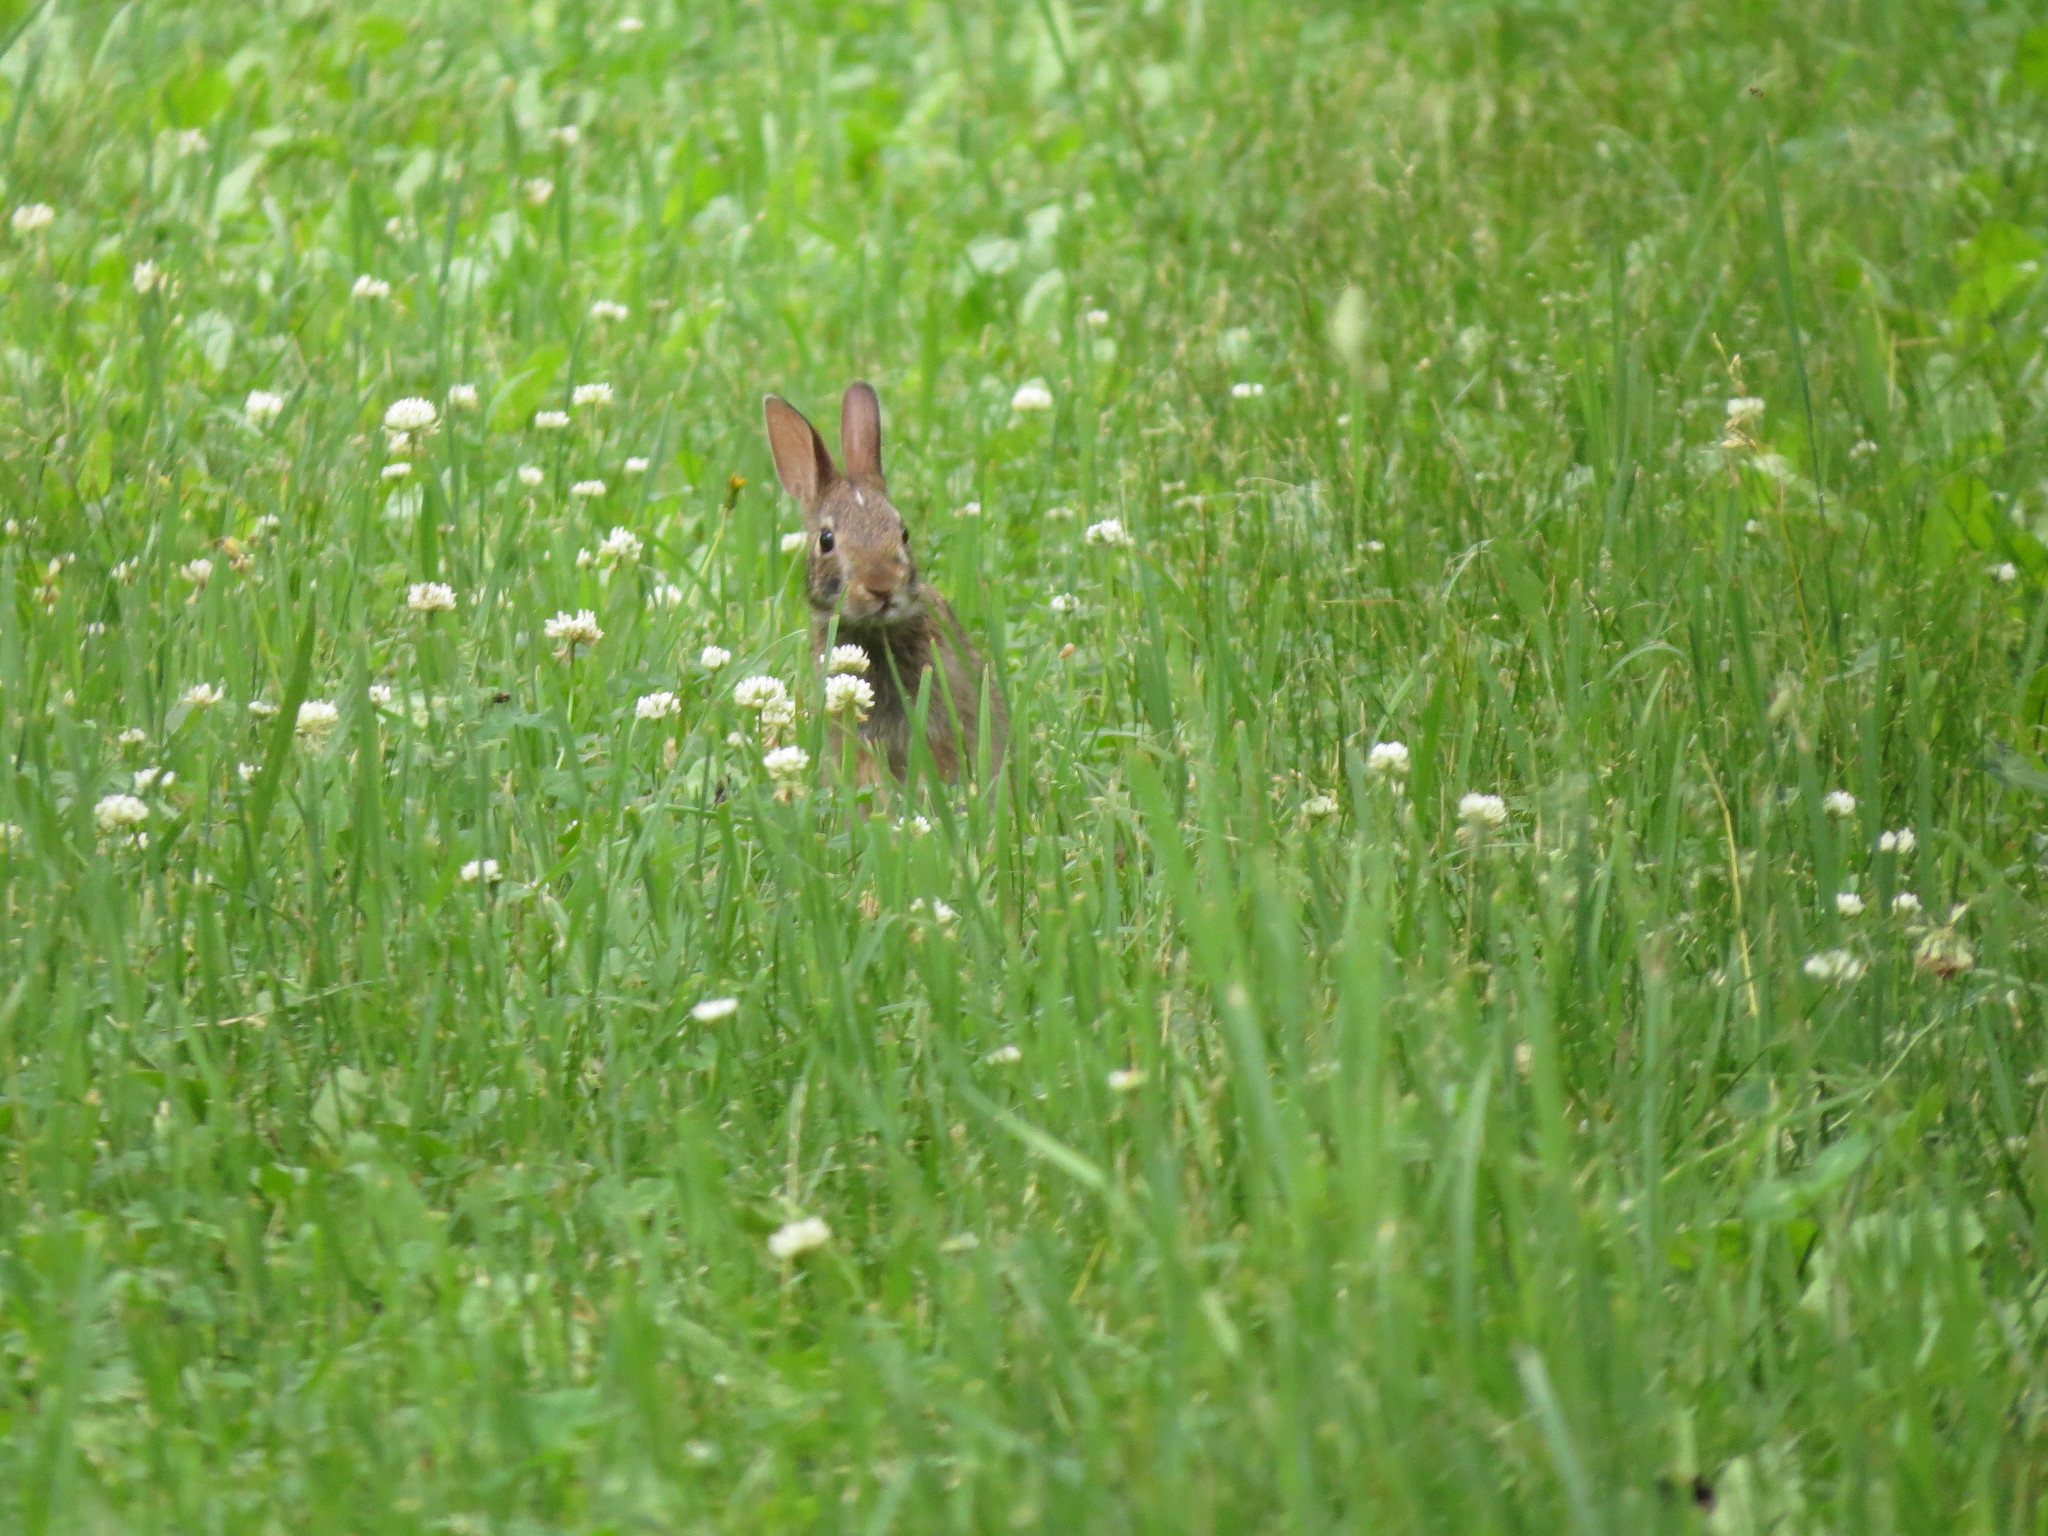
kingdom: Animalia
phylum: Chordata
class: Mammalia
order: Lagomorpha
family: Leporidae
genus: Sylvilagus
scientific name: Sylvilagus floridanus
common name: Eastern cottontail
